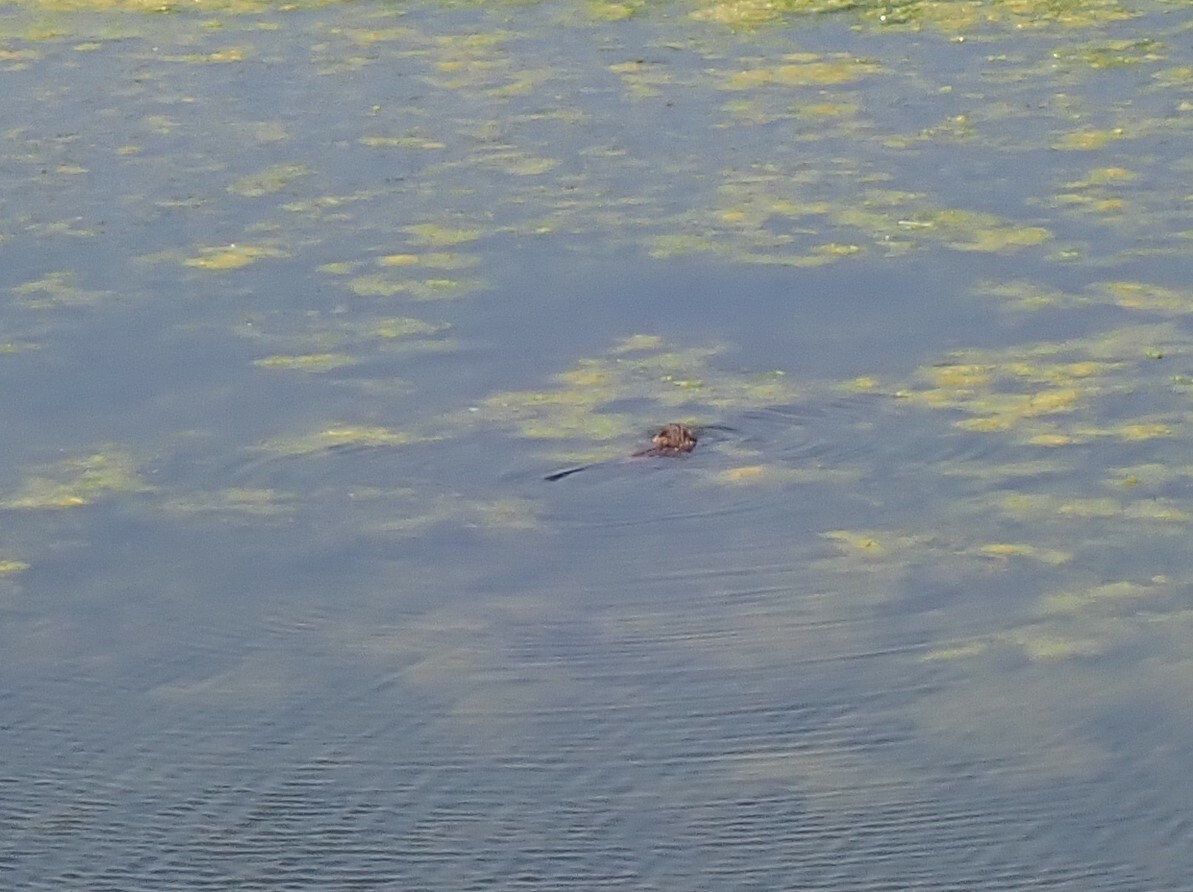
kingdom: Animalia
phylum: Chordata
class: Mammalia
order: Rodentia
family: Cricetidae
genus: Ondatra
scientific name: Ondatra zibethicus
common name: Muskrat
